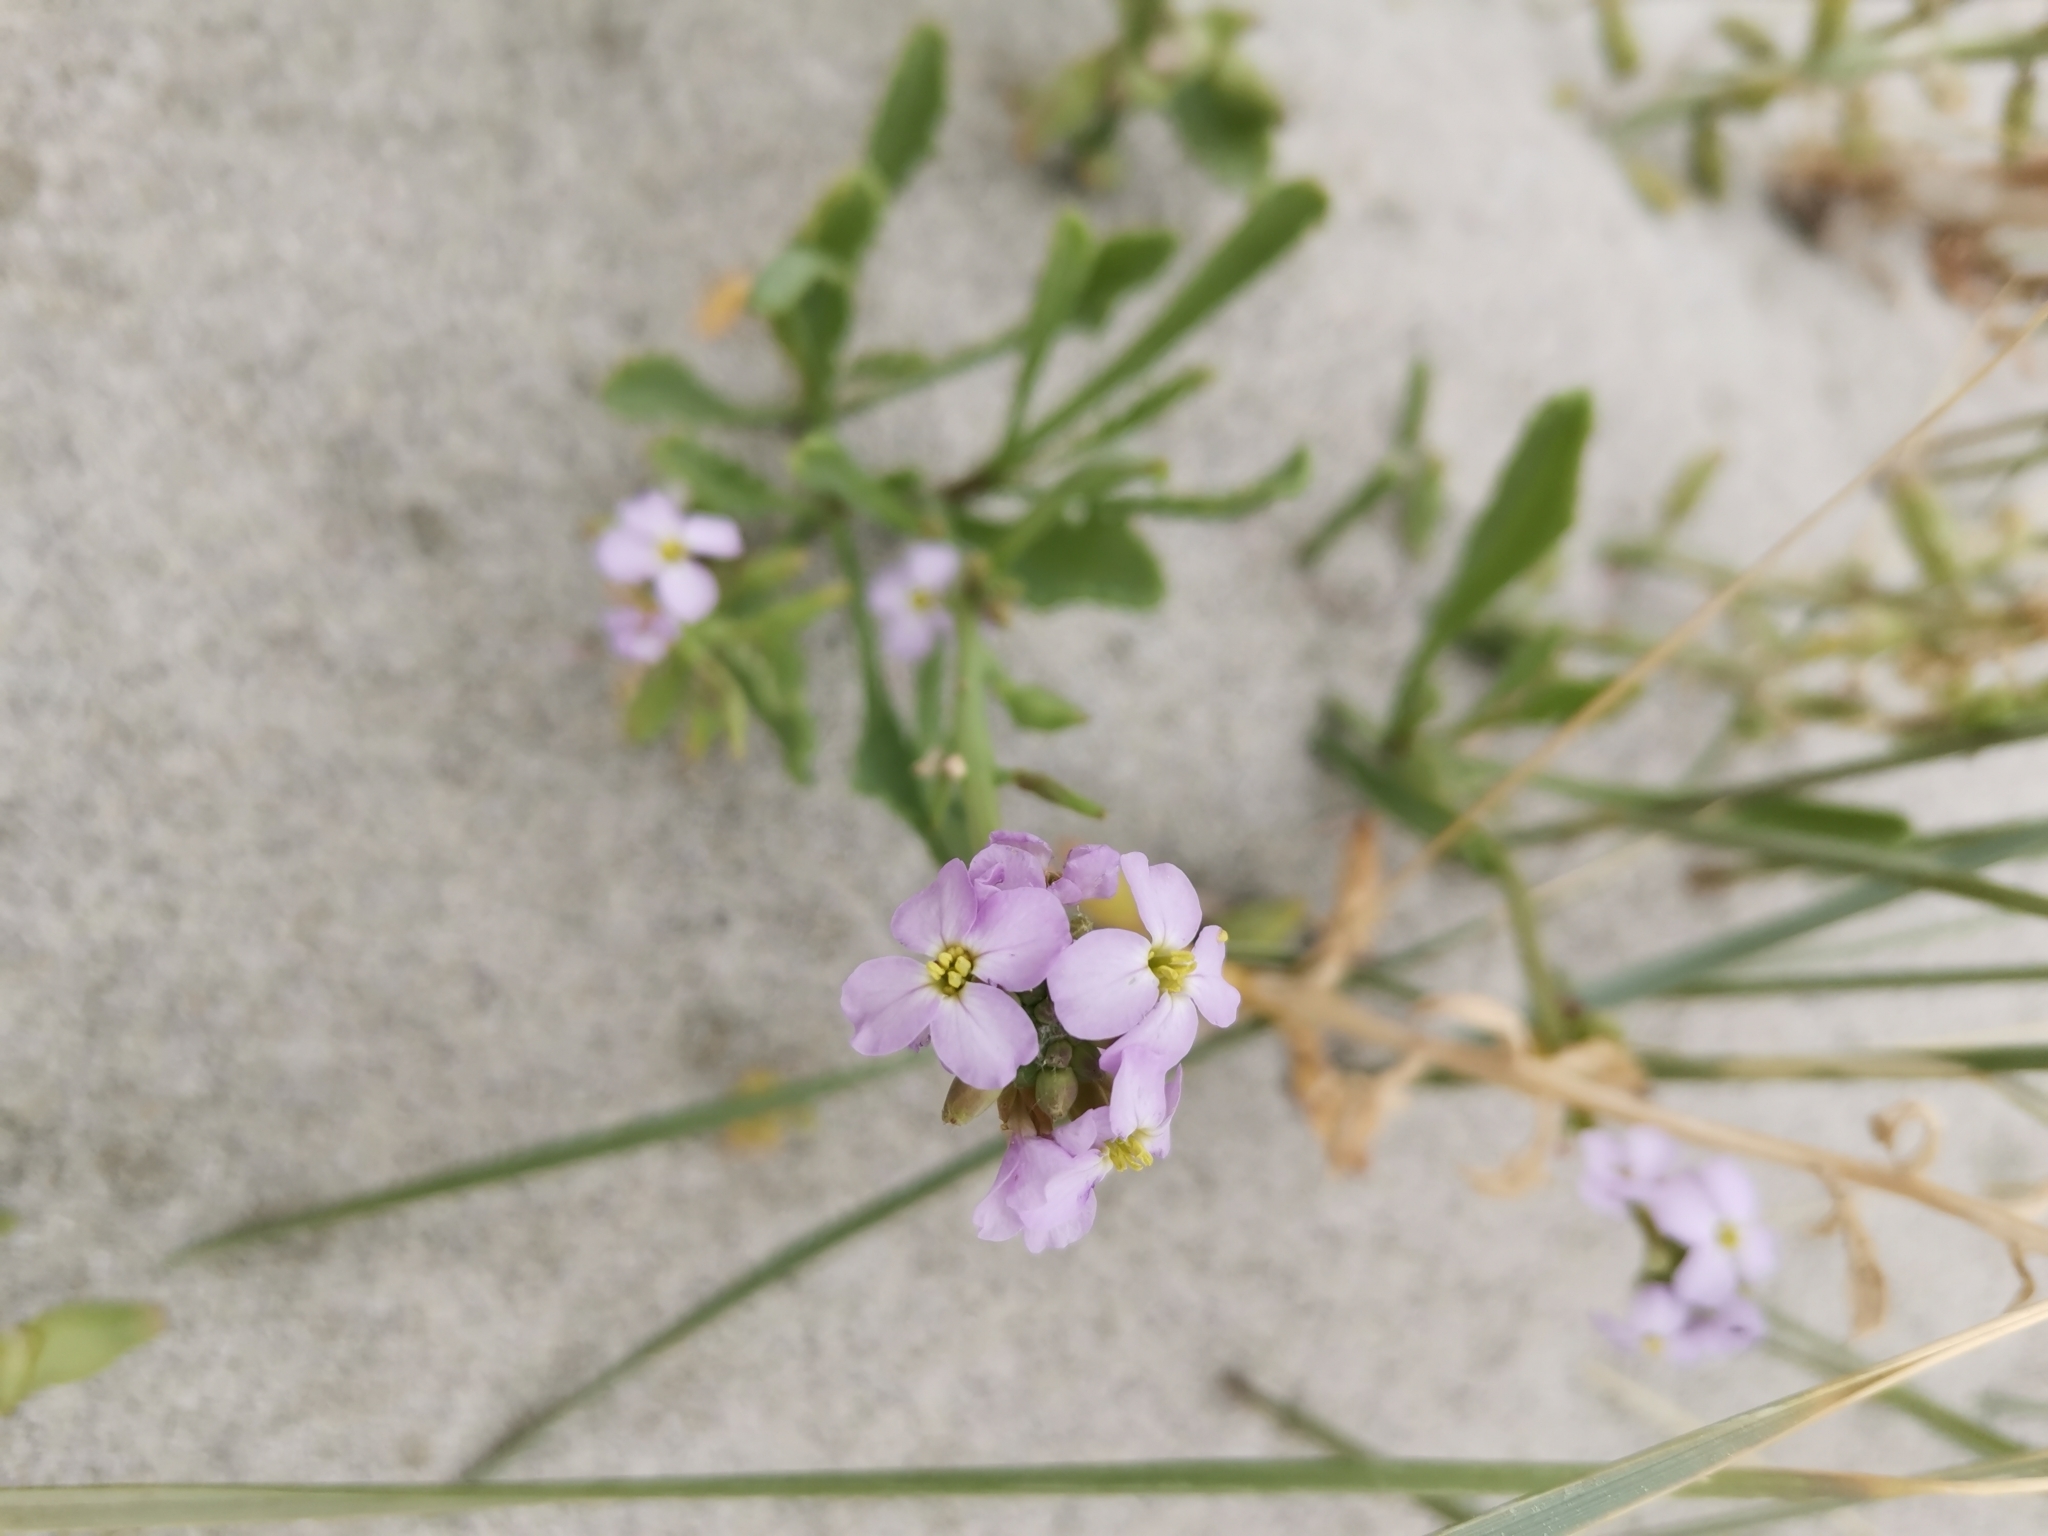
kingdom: Plantae
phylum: Tracheophyta
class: Magnoliopsida
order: Brassicales
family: Brassicaceae
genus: Cakile
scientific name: Cakile maritima
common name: Sea rocket
